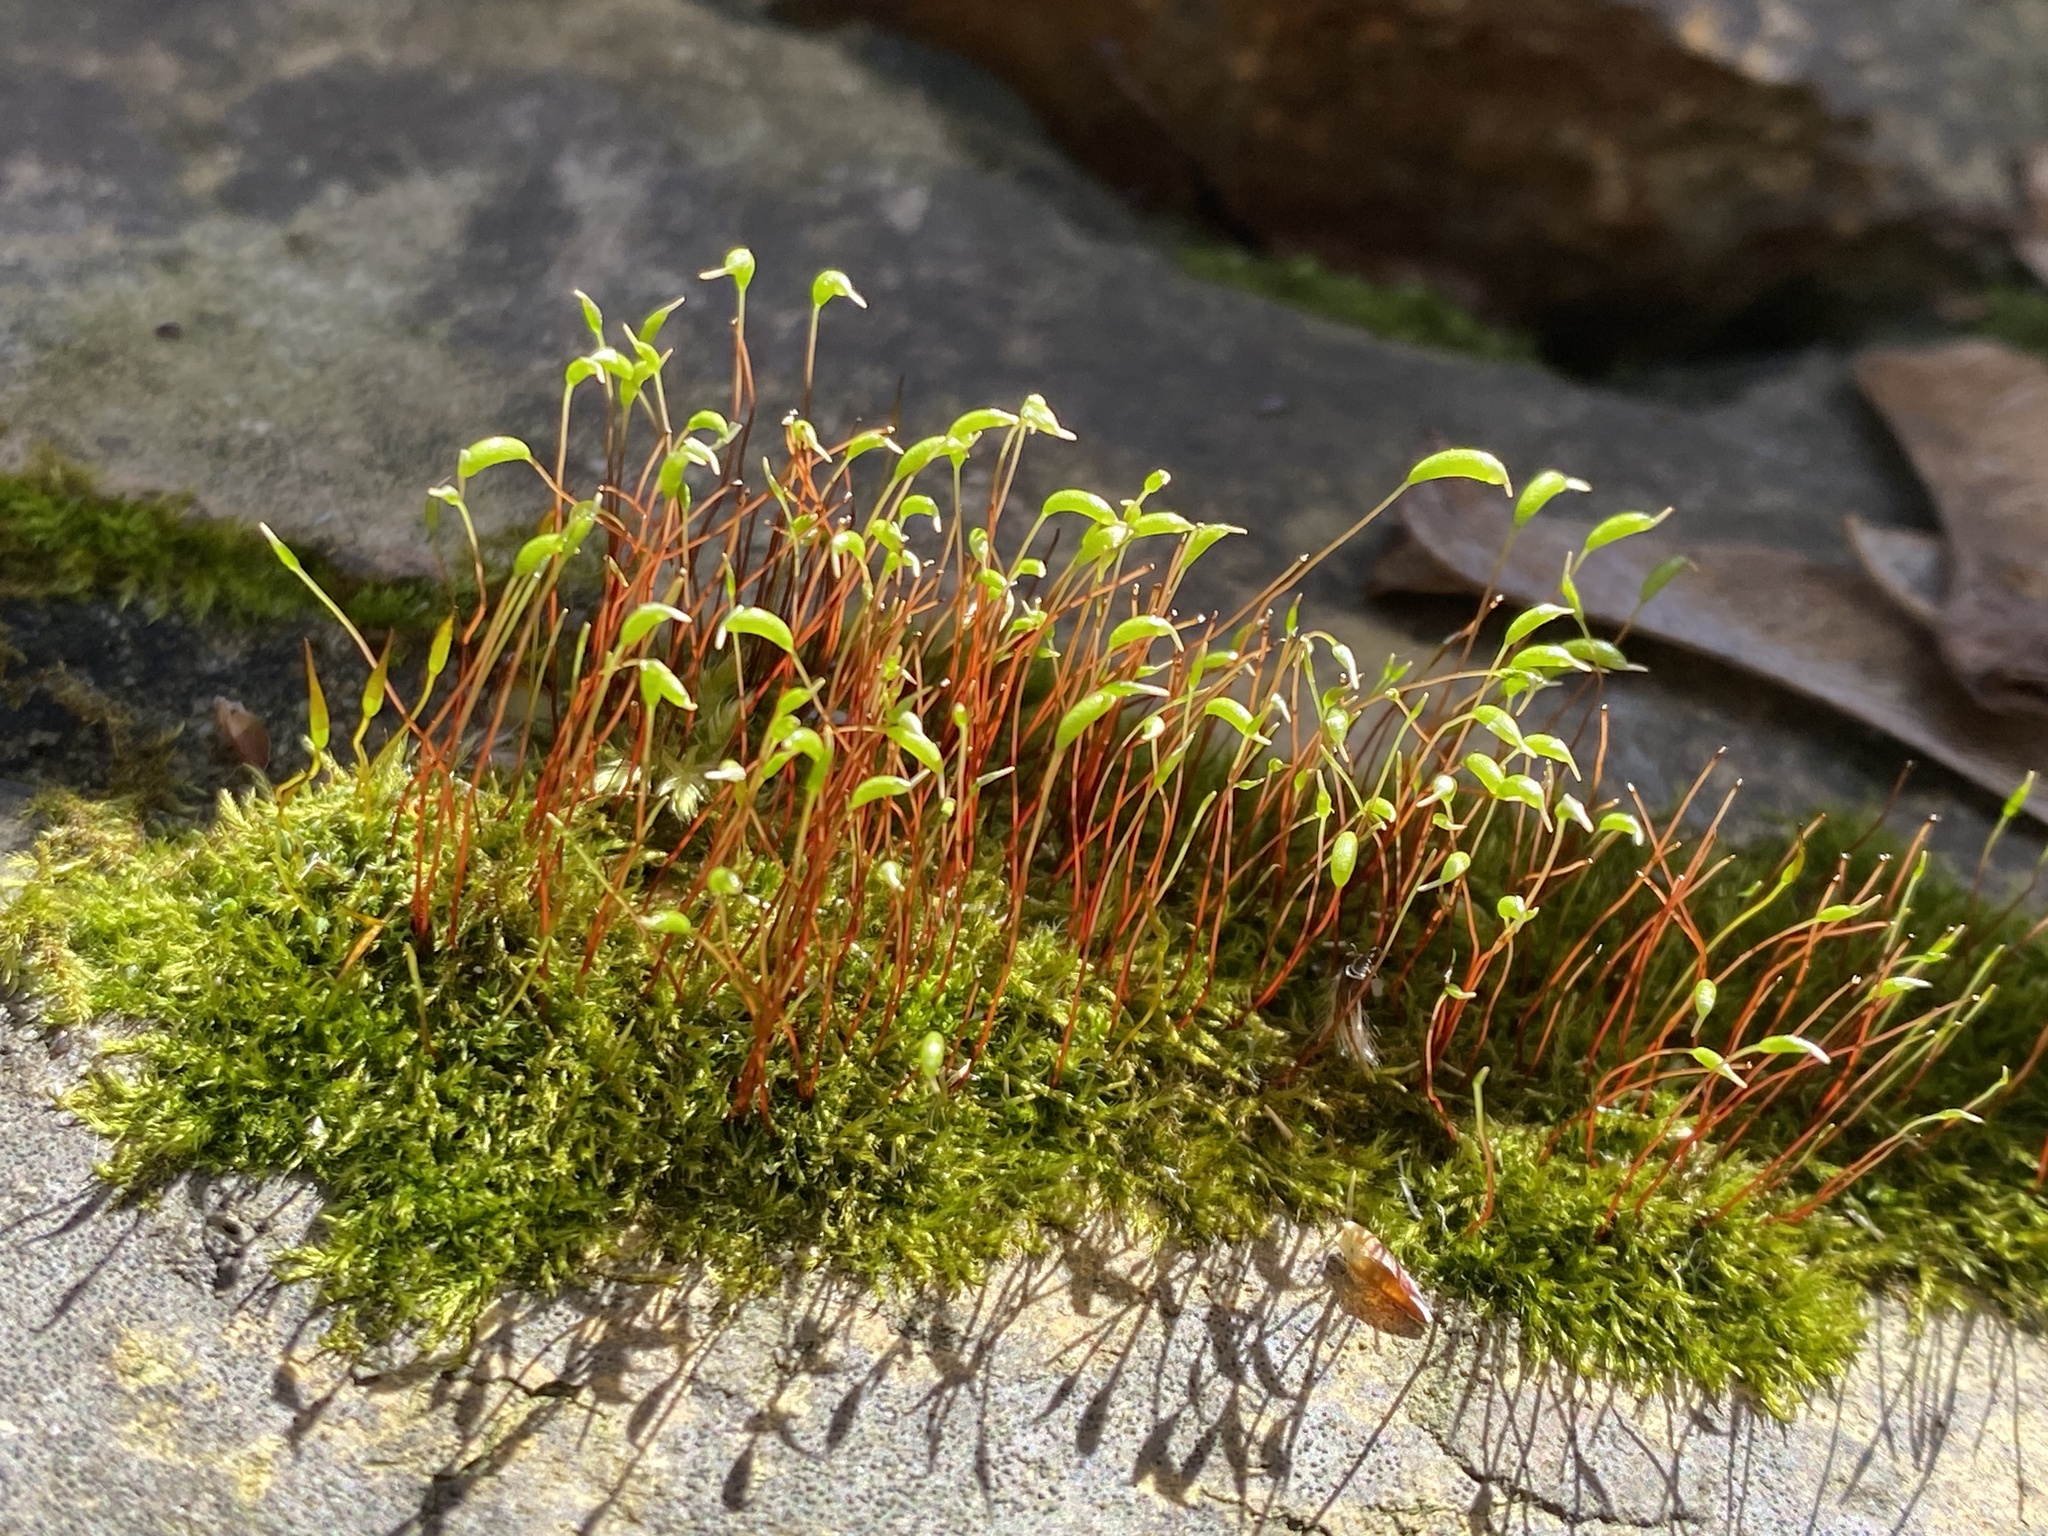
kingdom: Plantae
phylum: Bryophyta
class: Bryopsida
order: Hypnales
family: Amblystegiaceae
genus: Amblystegium
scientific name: Amblystegium serpens
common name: Jurkatzka's feather moss
